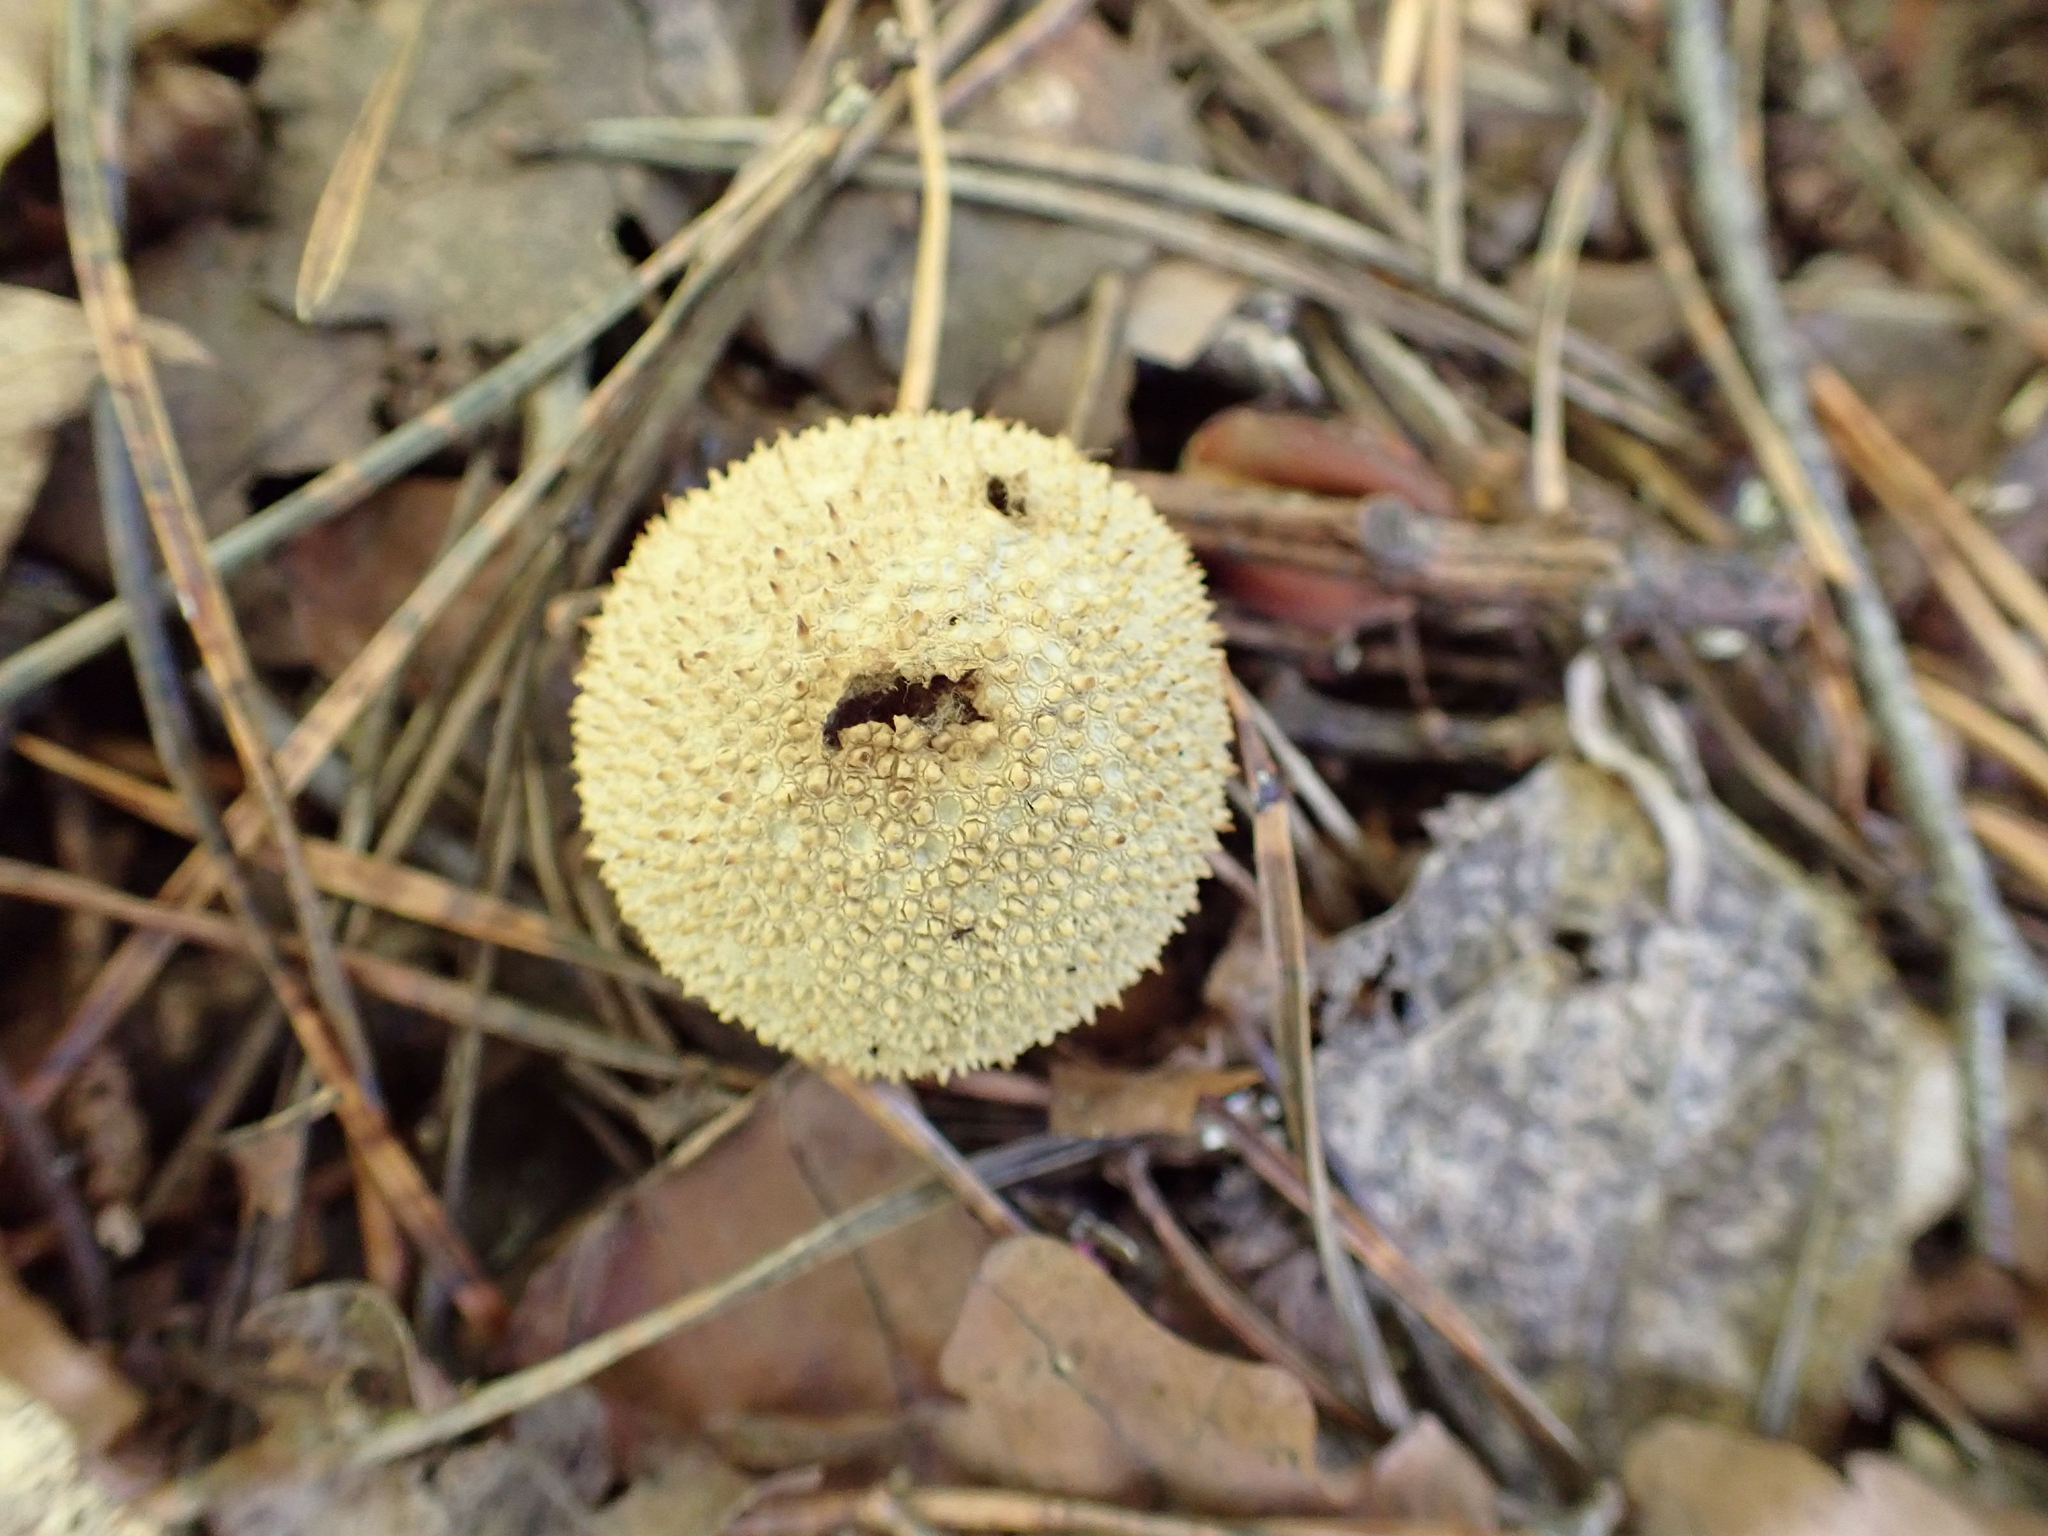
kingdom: Fungi
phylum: Basidiomycota
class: Agaricomycetes
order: Agaricales
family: Lycoperdaceae
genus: Lycoperdon
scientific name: Lycoperdon perlatum
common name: Common puffball
